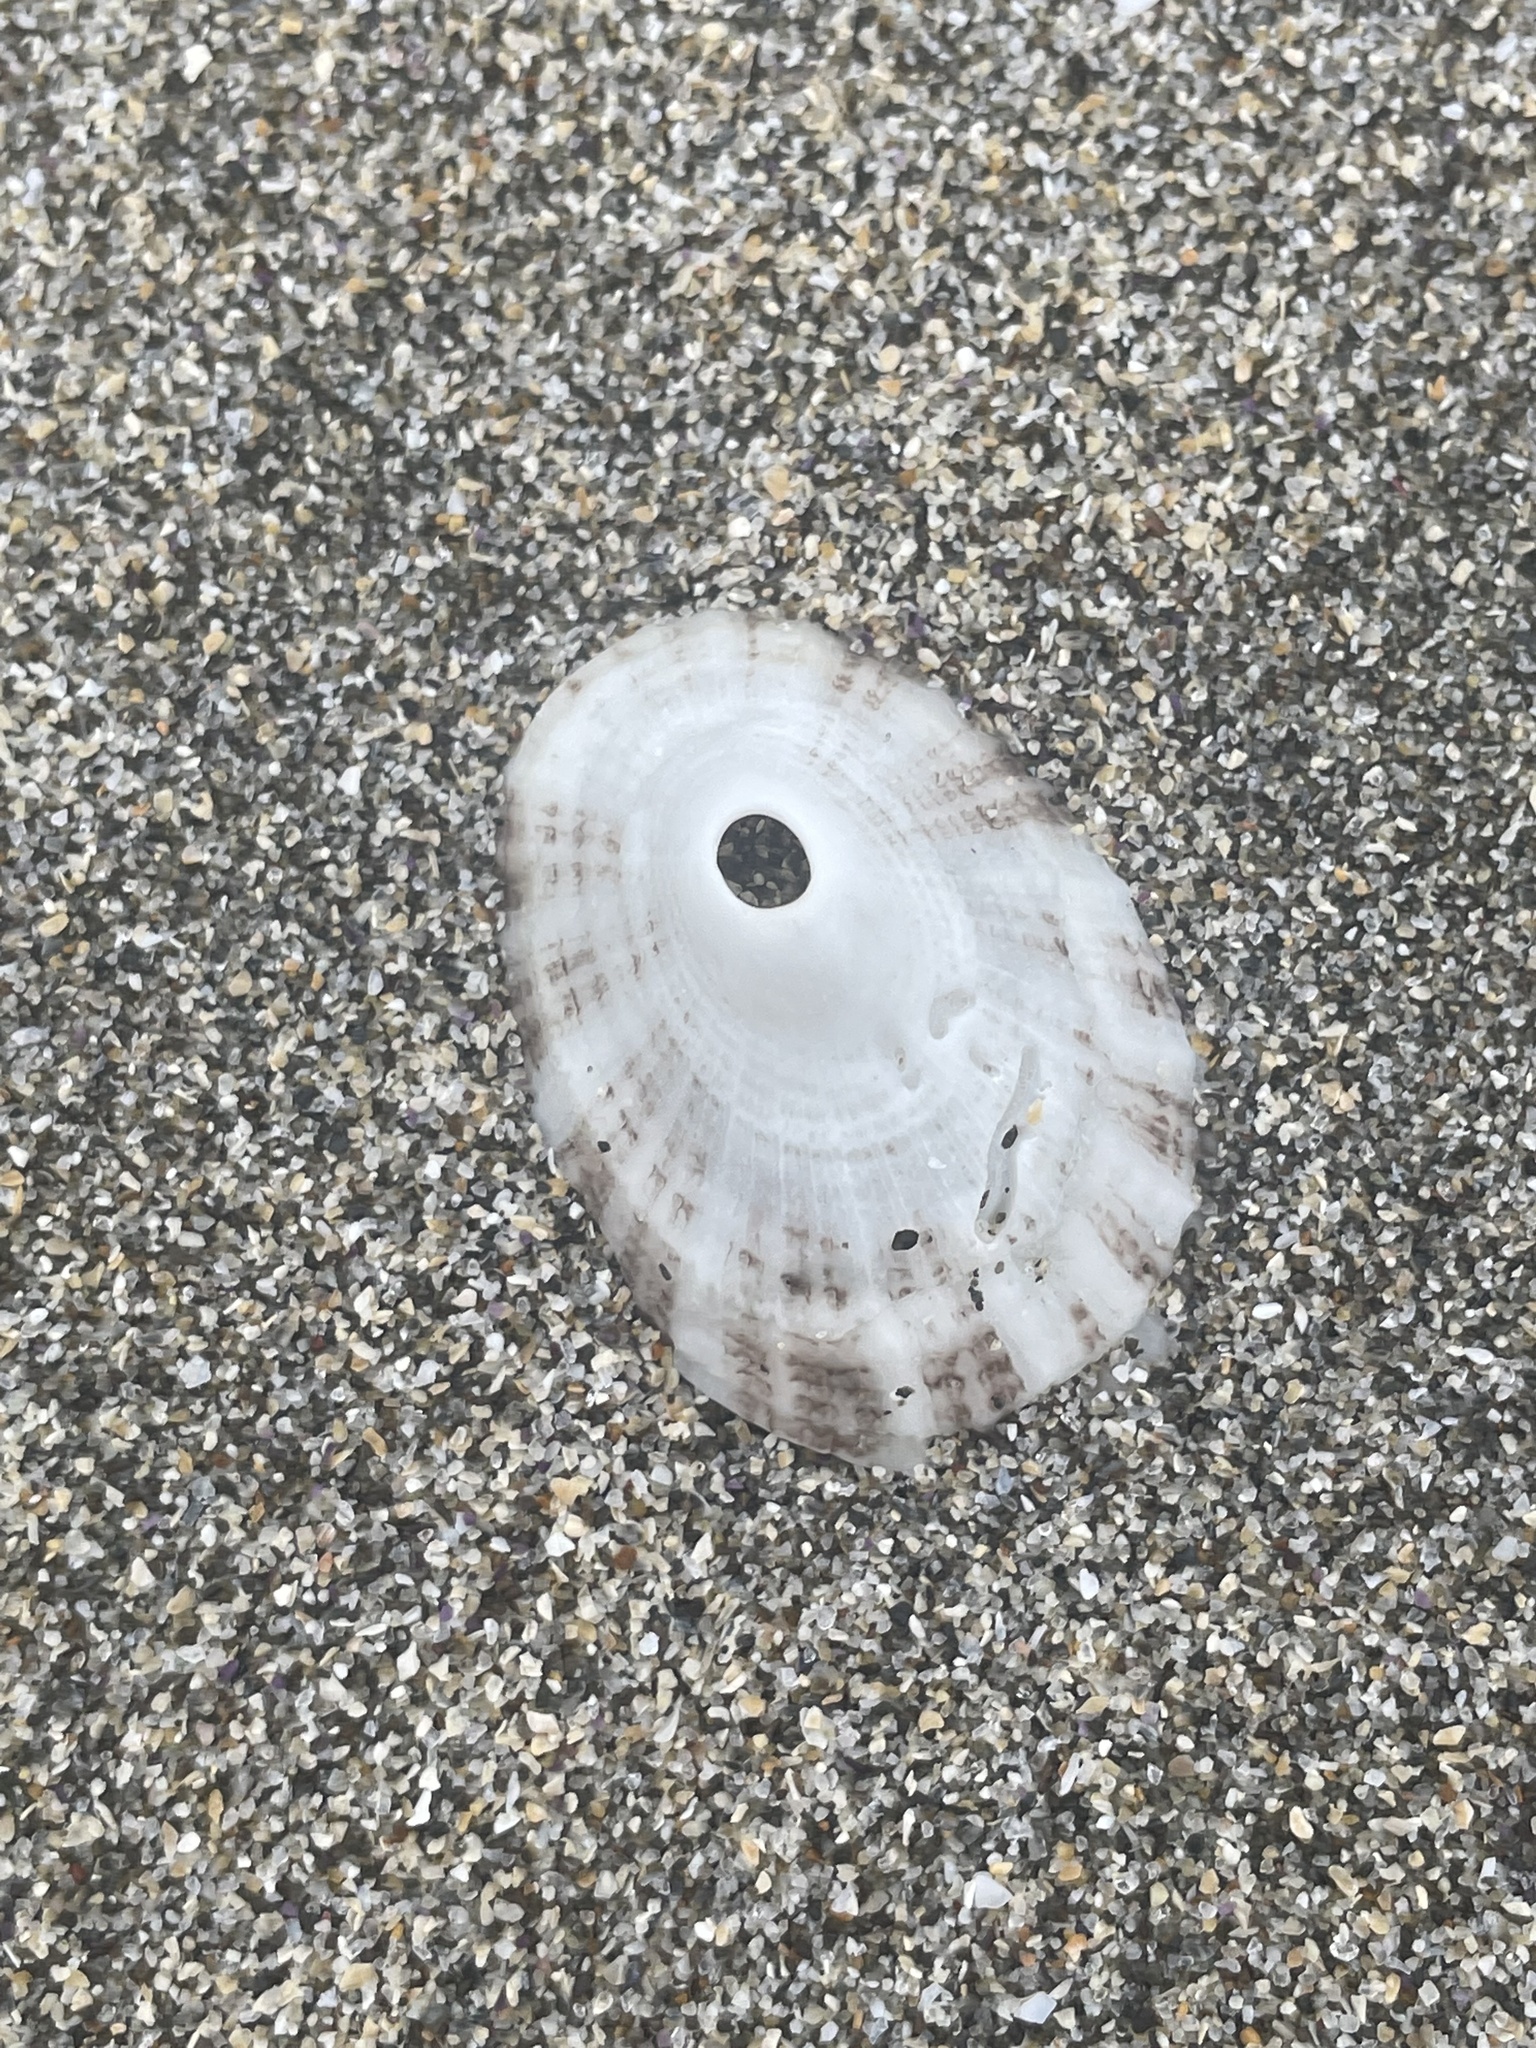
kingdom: Animalia
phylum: Mollusca
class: Gastropoda
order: Lepetellida
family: Fissurellidae
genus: Diodora
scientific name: Diodora aspera
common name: Rough keyhole limpet
